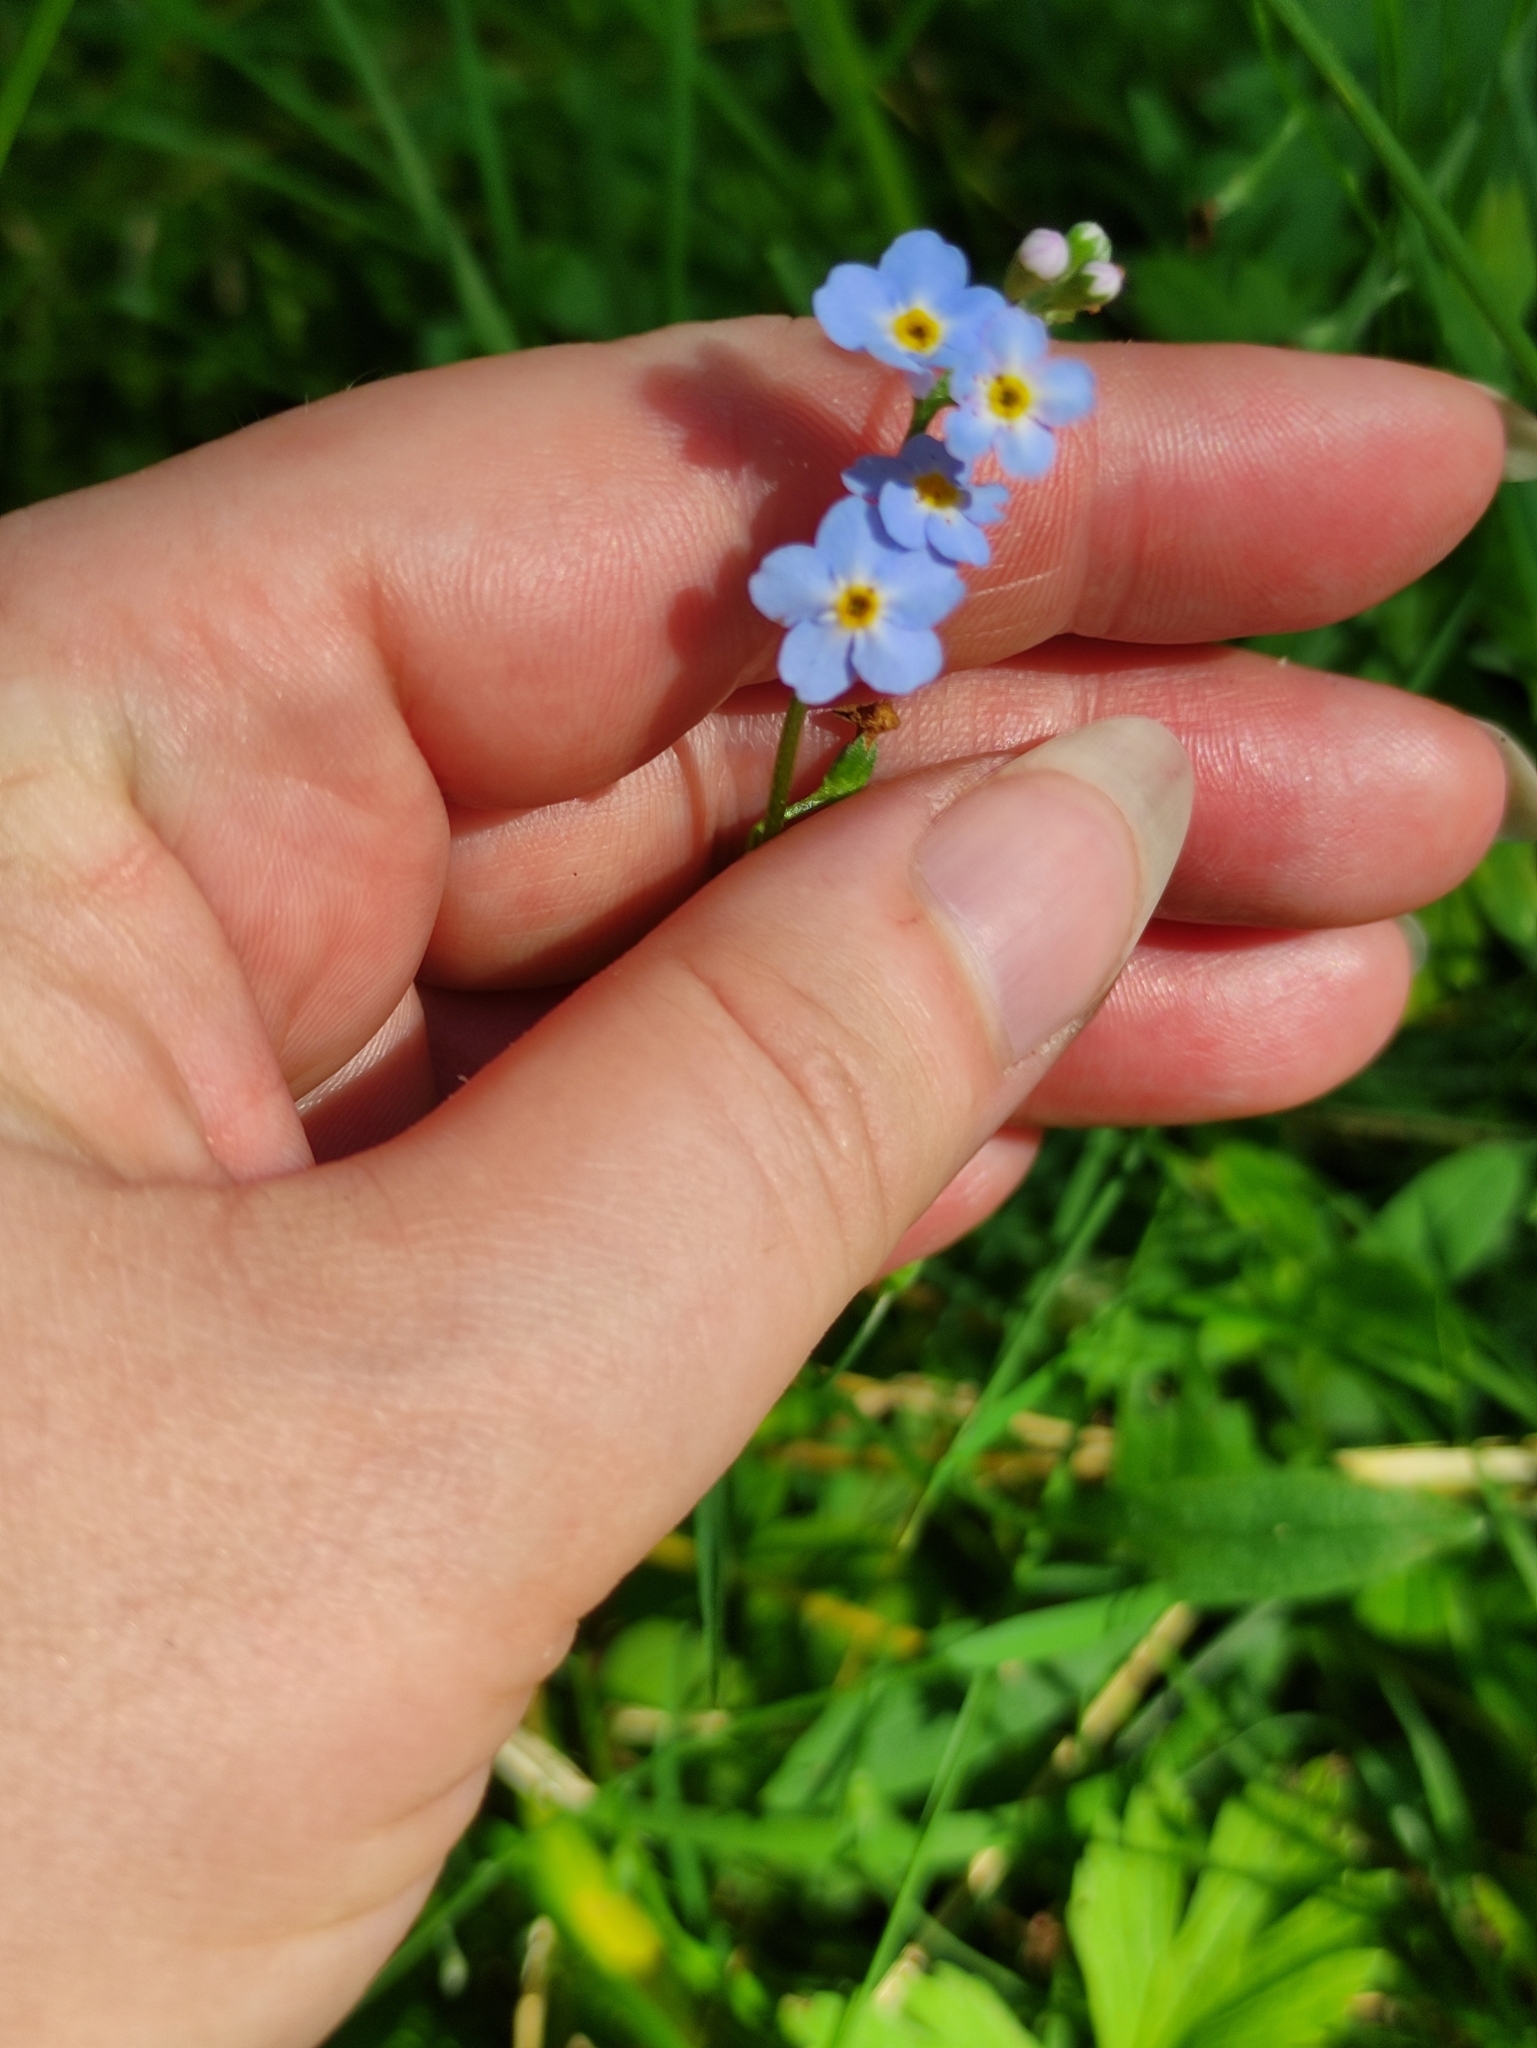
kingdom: Plantae
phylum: Tracheophyta
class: Magnoliopsida
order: Boraginales
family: Boraginaceae
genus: Myosotis
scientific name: Myosotis scorpioides
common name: Water forget-me-not
